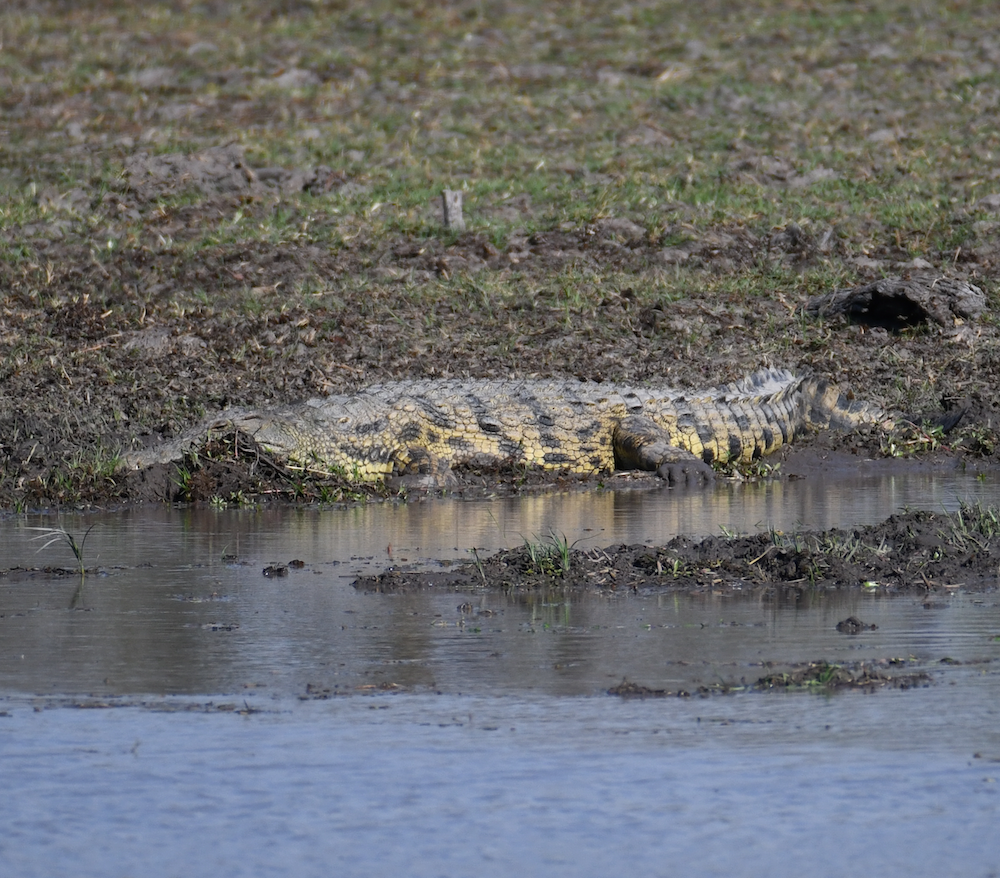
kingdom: Animalia
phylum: Chordata
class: Crocodylia
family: Crocodylidae
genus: Crocodylus
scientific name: Crocodylus niloticus
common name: Nile crocodile
